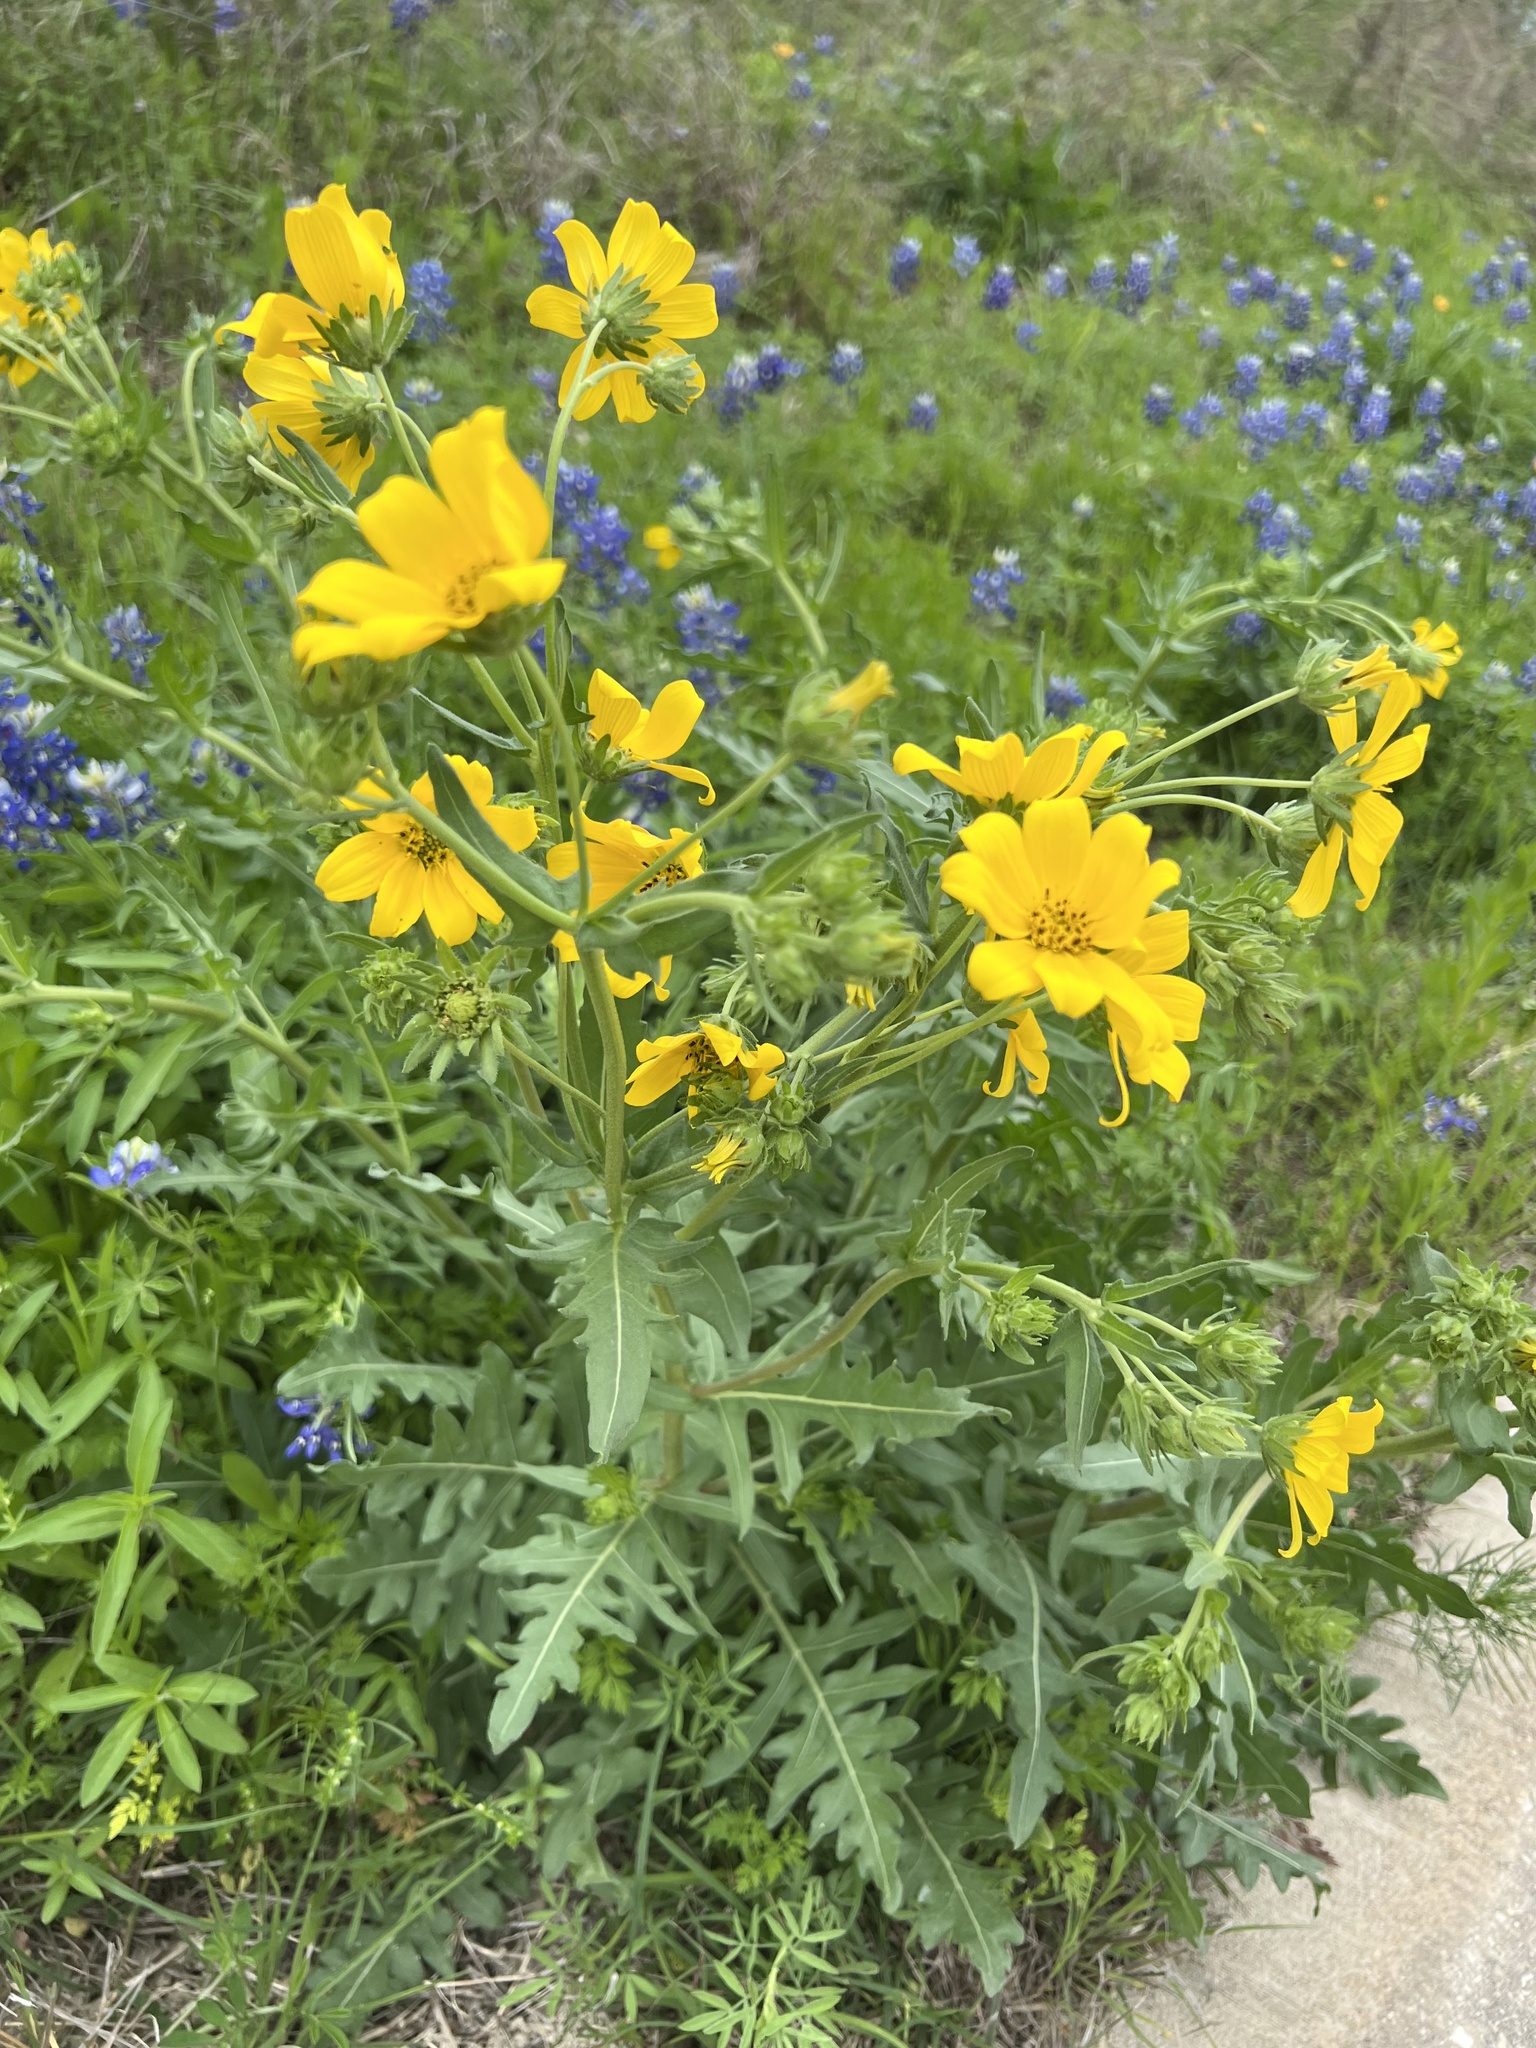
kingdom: Plantae
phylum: Tracheophyta
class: Magnoliopsida
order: Asterales
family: Asteraceae
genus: Engelmannia
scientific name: Engelmannia peristenia
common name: Engelmann's daisy
